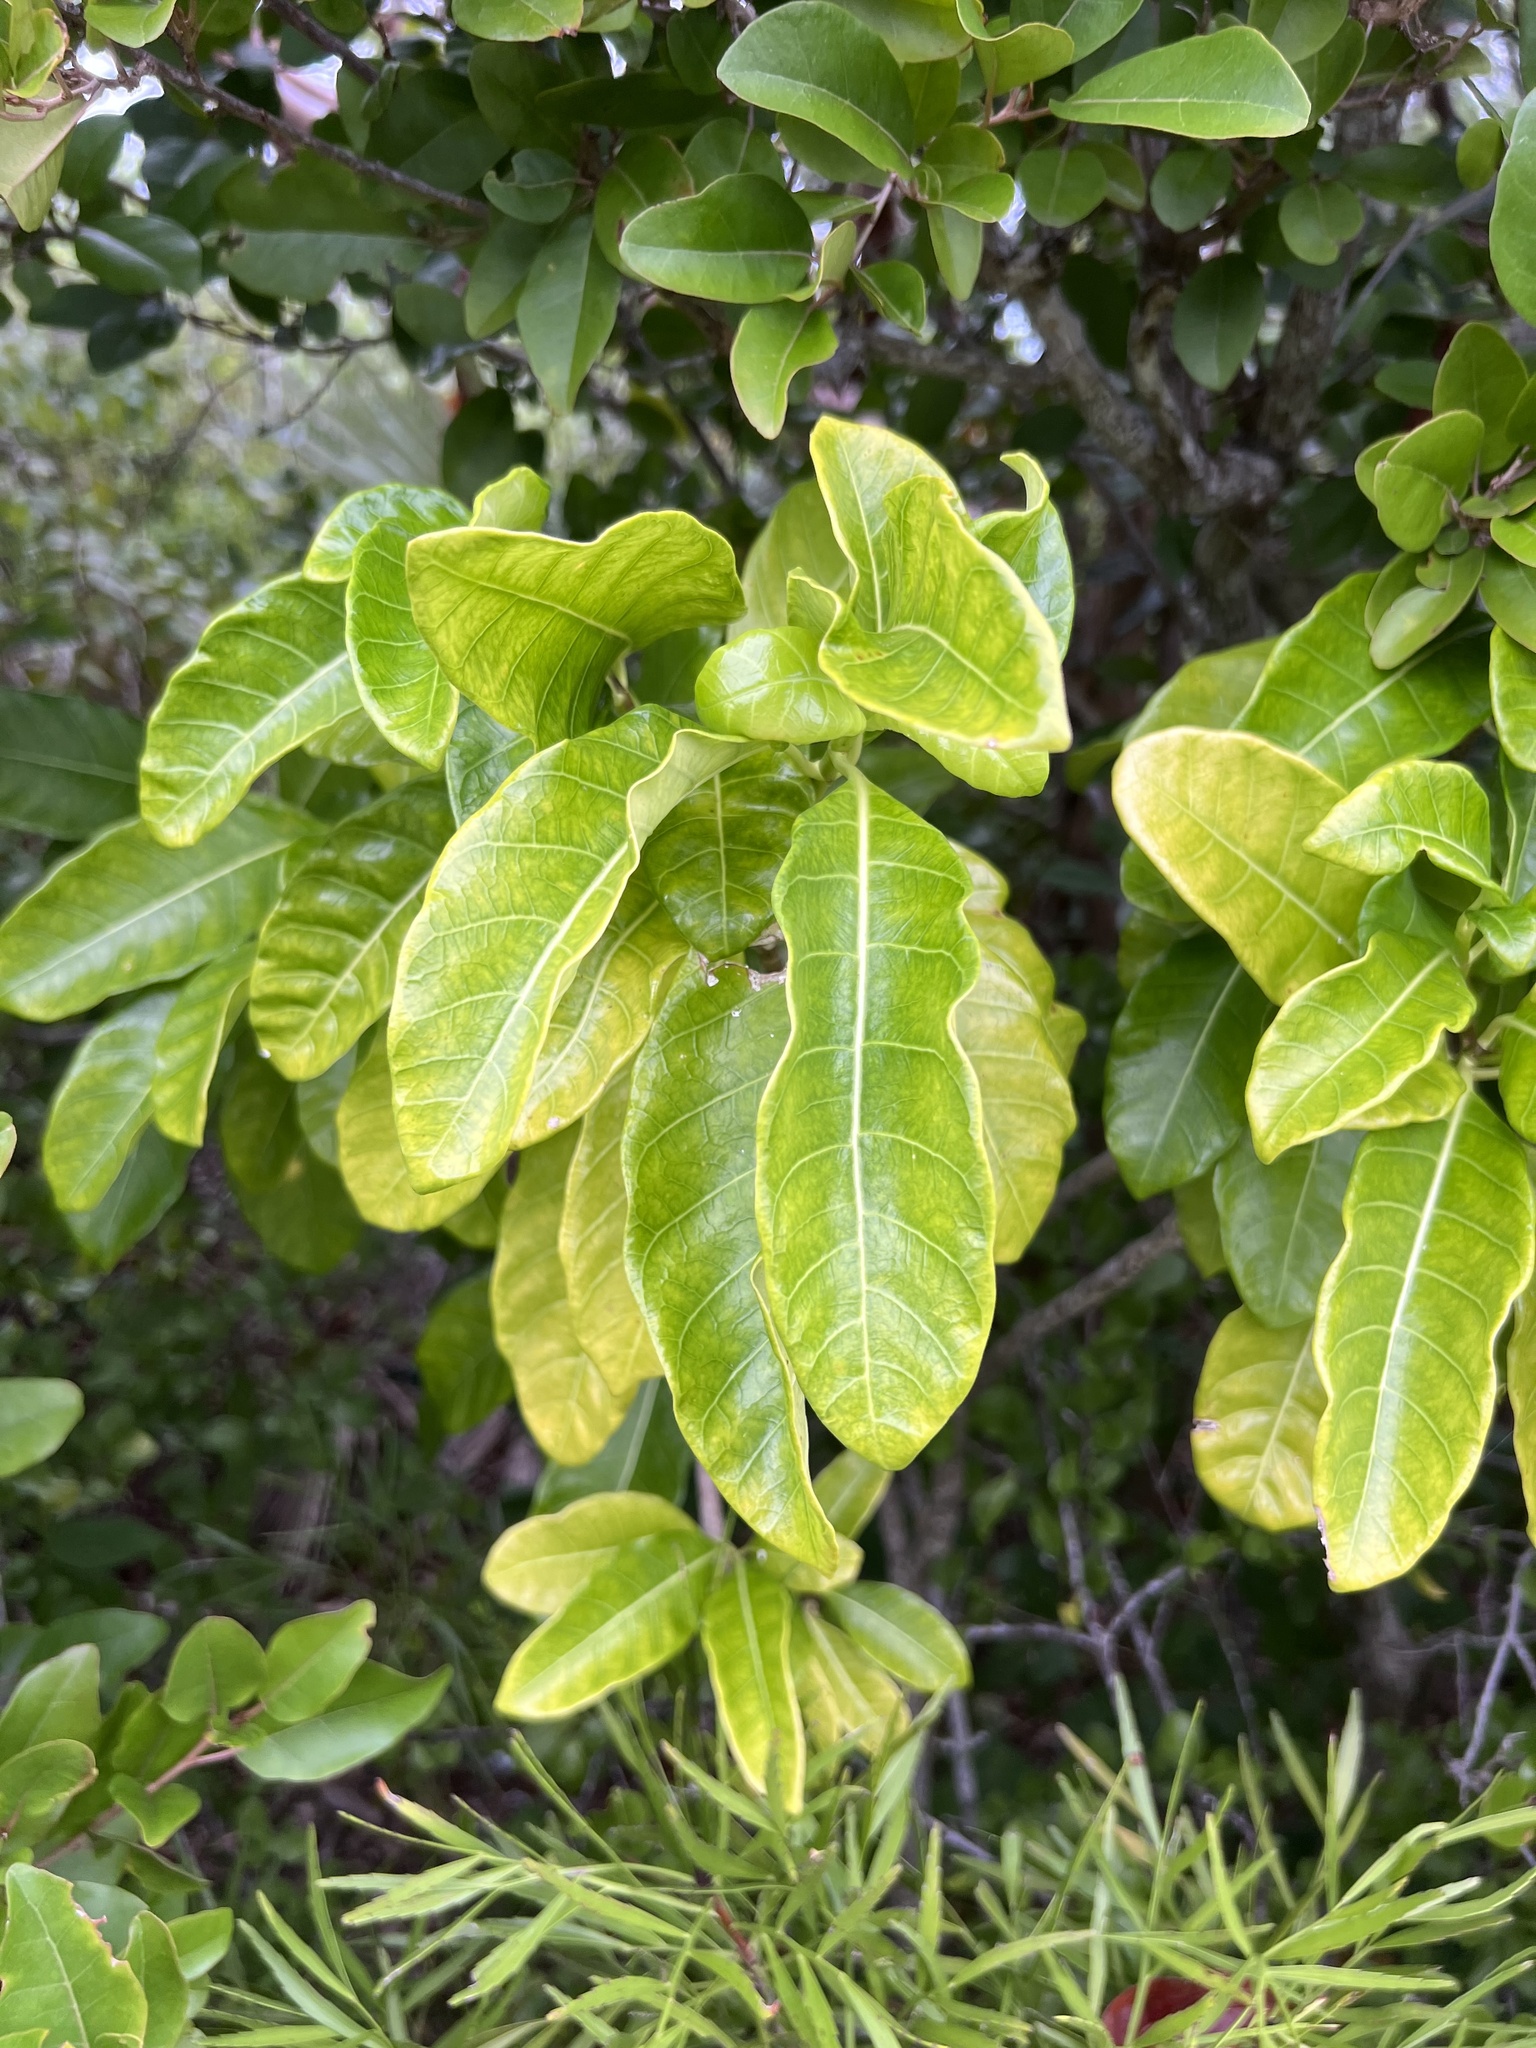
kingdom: Plantae
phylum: Tracheophyta
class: Magnoliopsida
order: Gentianales
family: Apocynaceae
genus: Tabernaemontana
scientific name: Tabernaemontana laurifolia
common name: Slingshot
